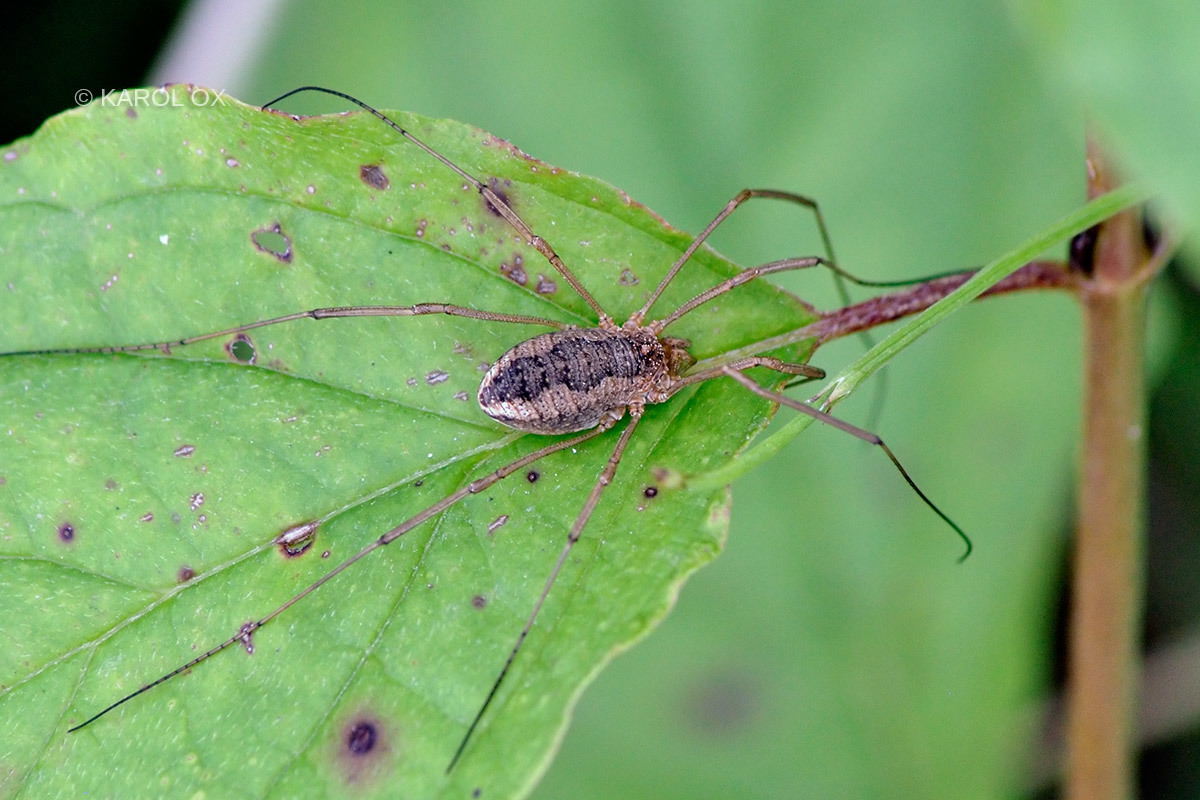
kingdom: Animalia
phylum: Arthropoda
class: Arachnida
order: Opiliones
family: Phalangiidae
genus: Phalangium
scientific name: Phalangium opilio
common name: Daddy longleg
